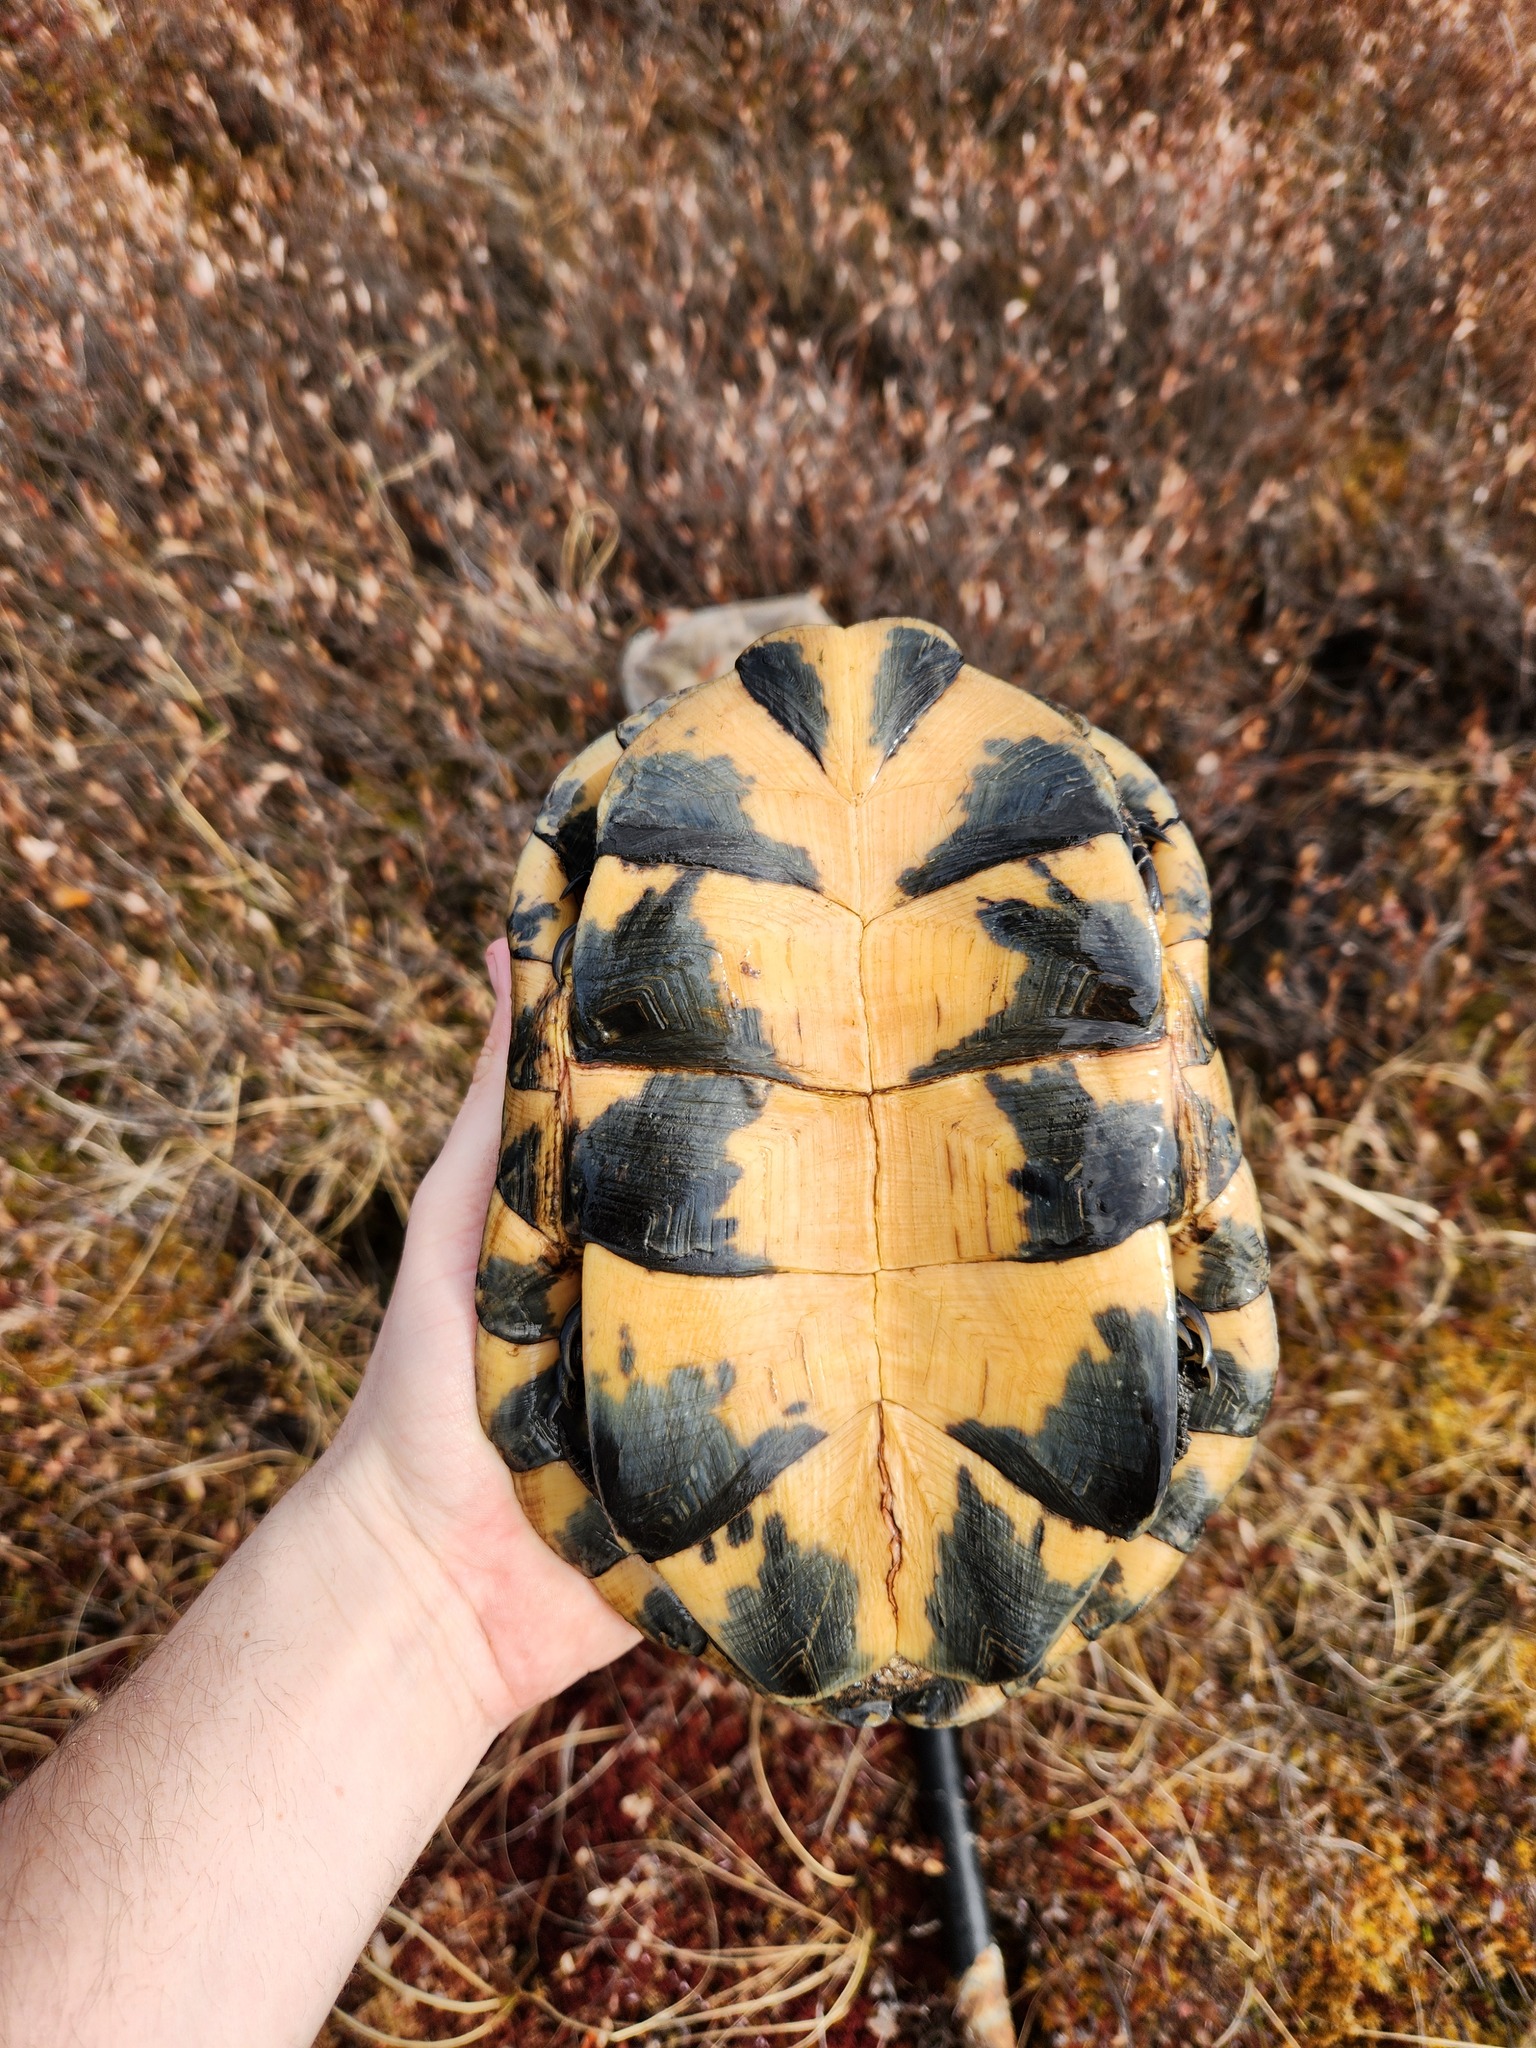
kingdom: Animalia
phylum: Chordata
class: Testudines
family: Emydidae
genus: Emys
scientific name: Emys blandingii
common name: Blanding's turtle
